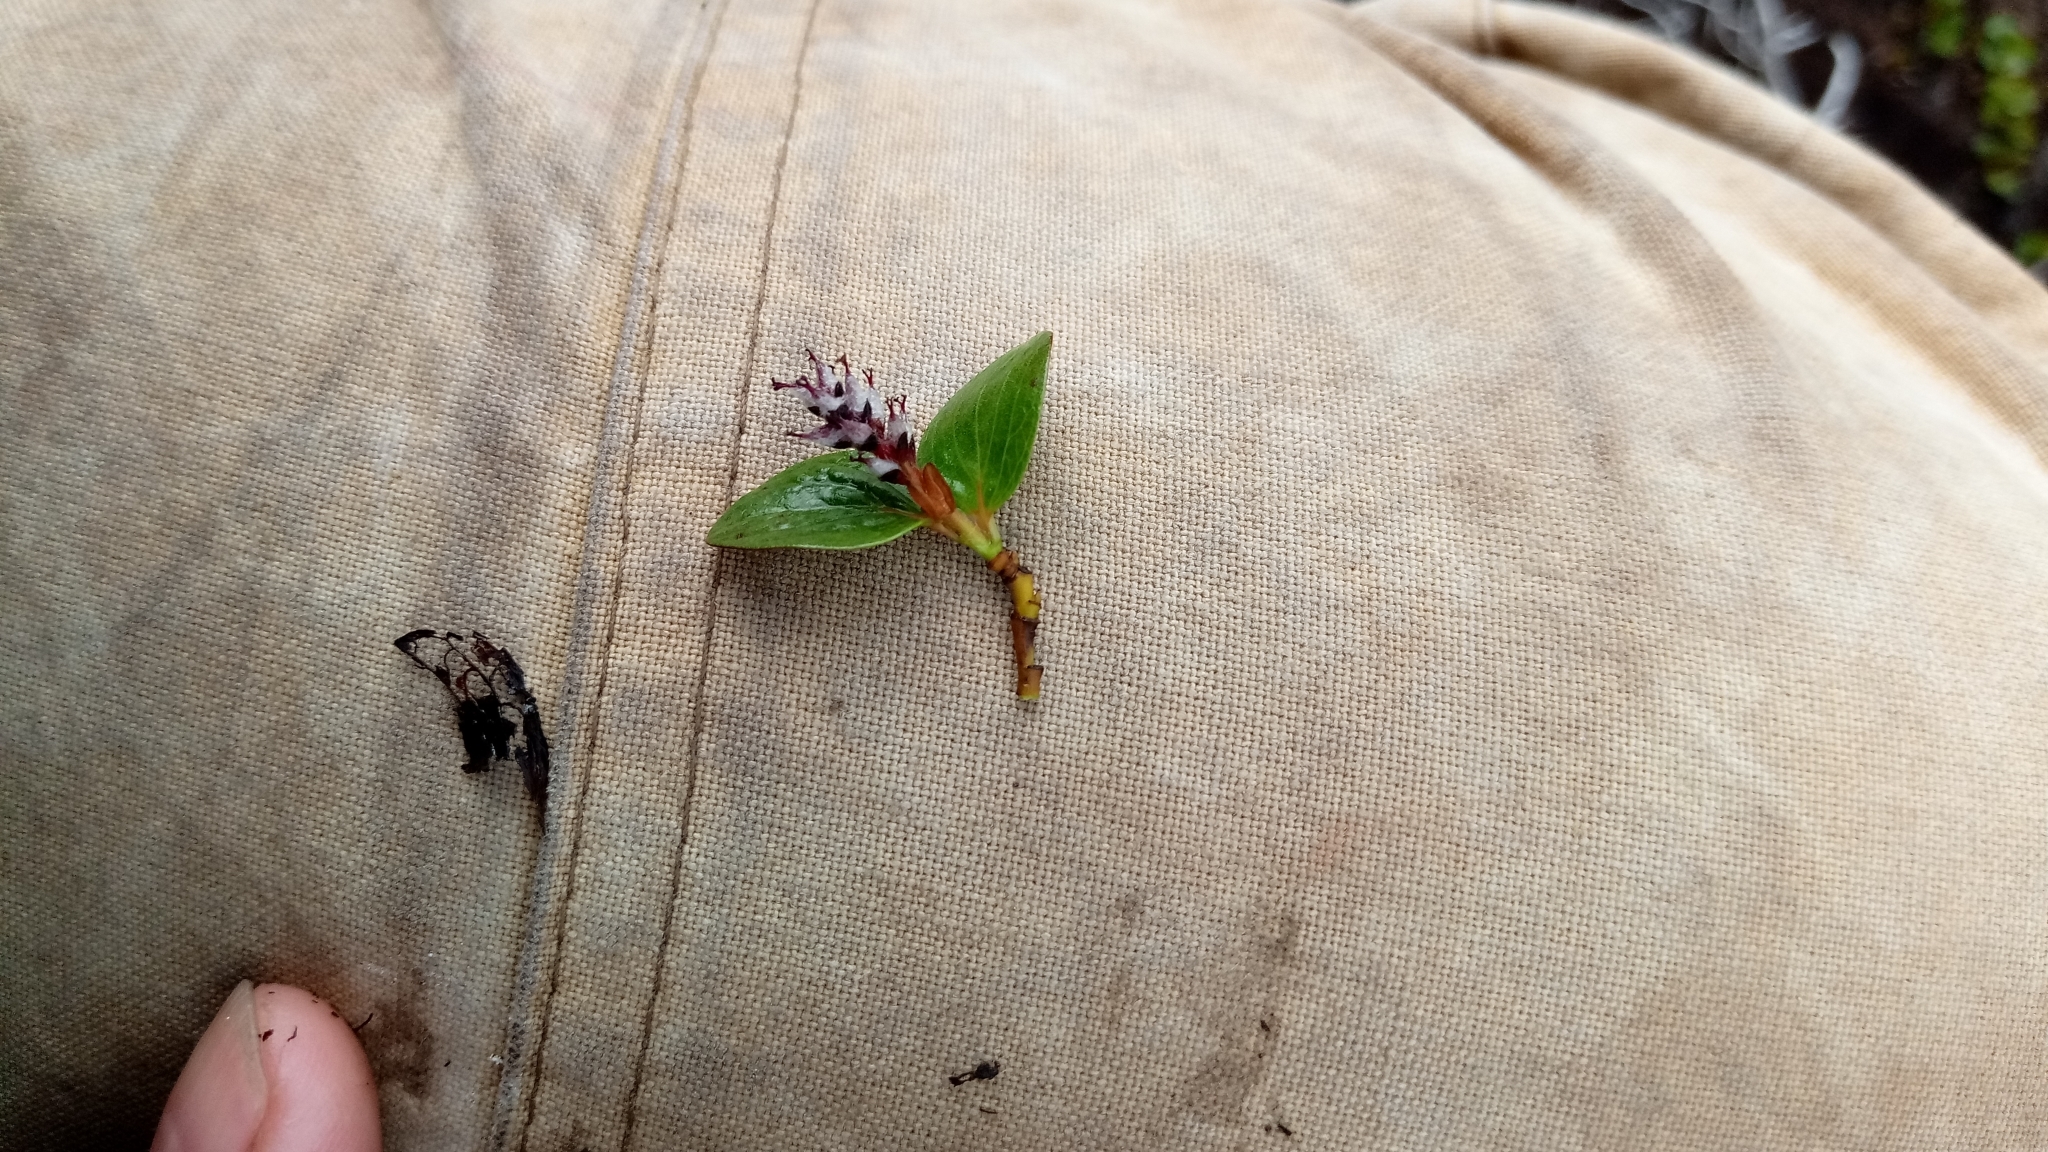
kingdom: Plantae
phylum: Tracheophyta
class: Magnoliopsida
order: Malpighiales
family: Salicaceae
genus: Salix
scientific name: Salix polaris
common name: Polar willow
